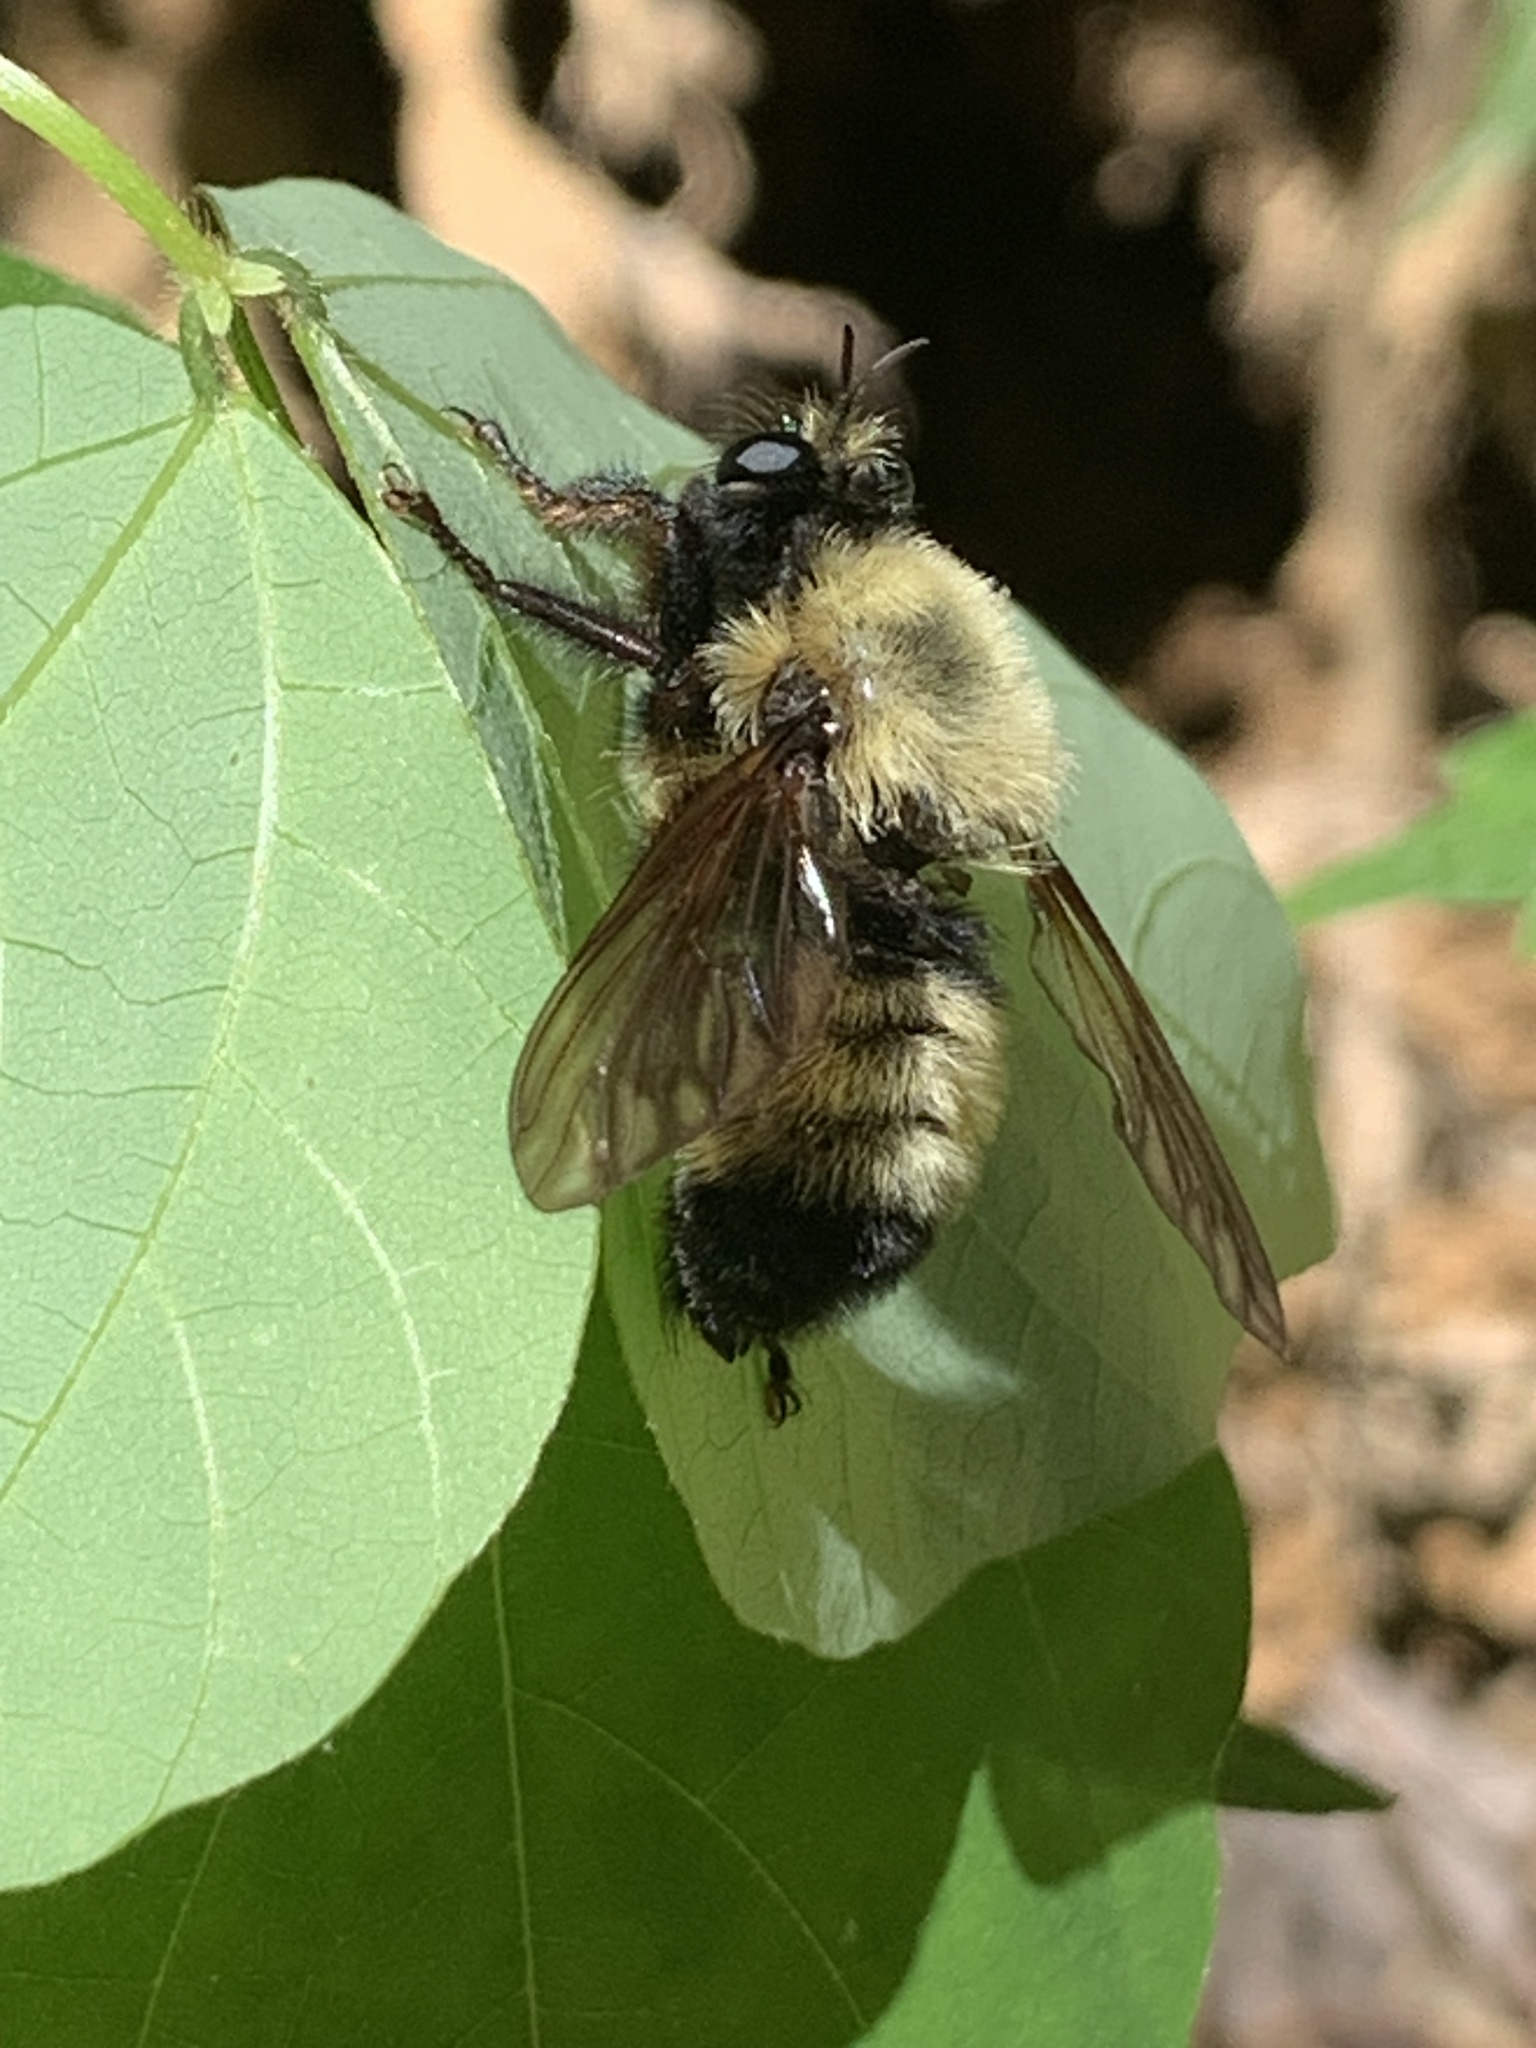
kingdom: Animalia
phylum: Arthropoda
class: Insecta
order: Diptera
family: Asilidae
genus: Laphria
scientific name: Laphria thoracica
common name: Bumble bee mimic robber fly
